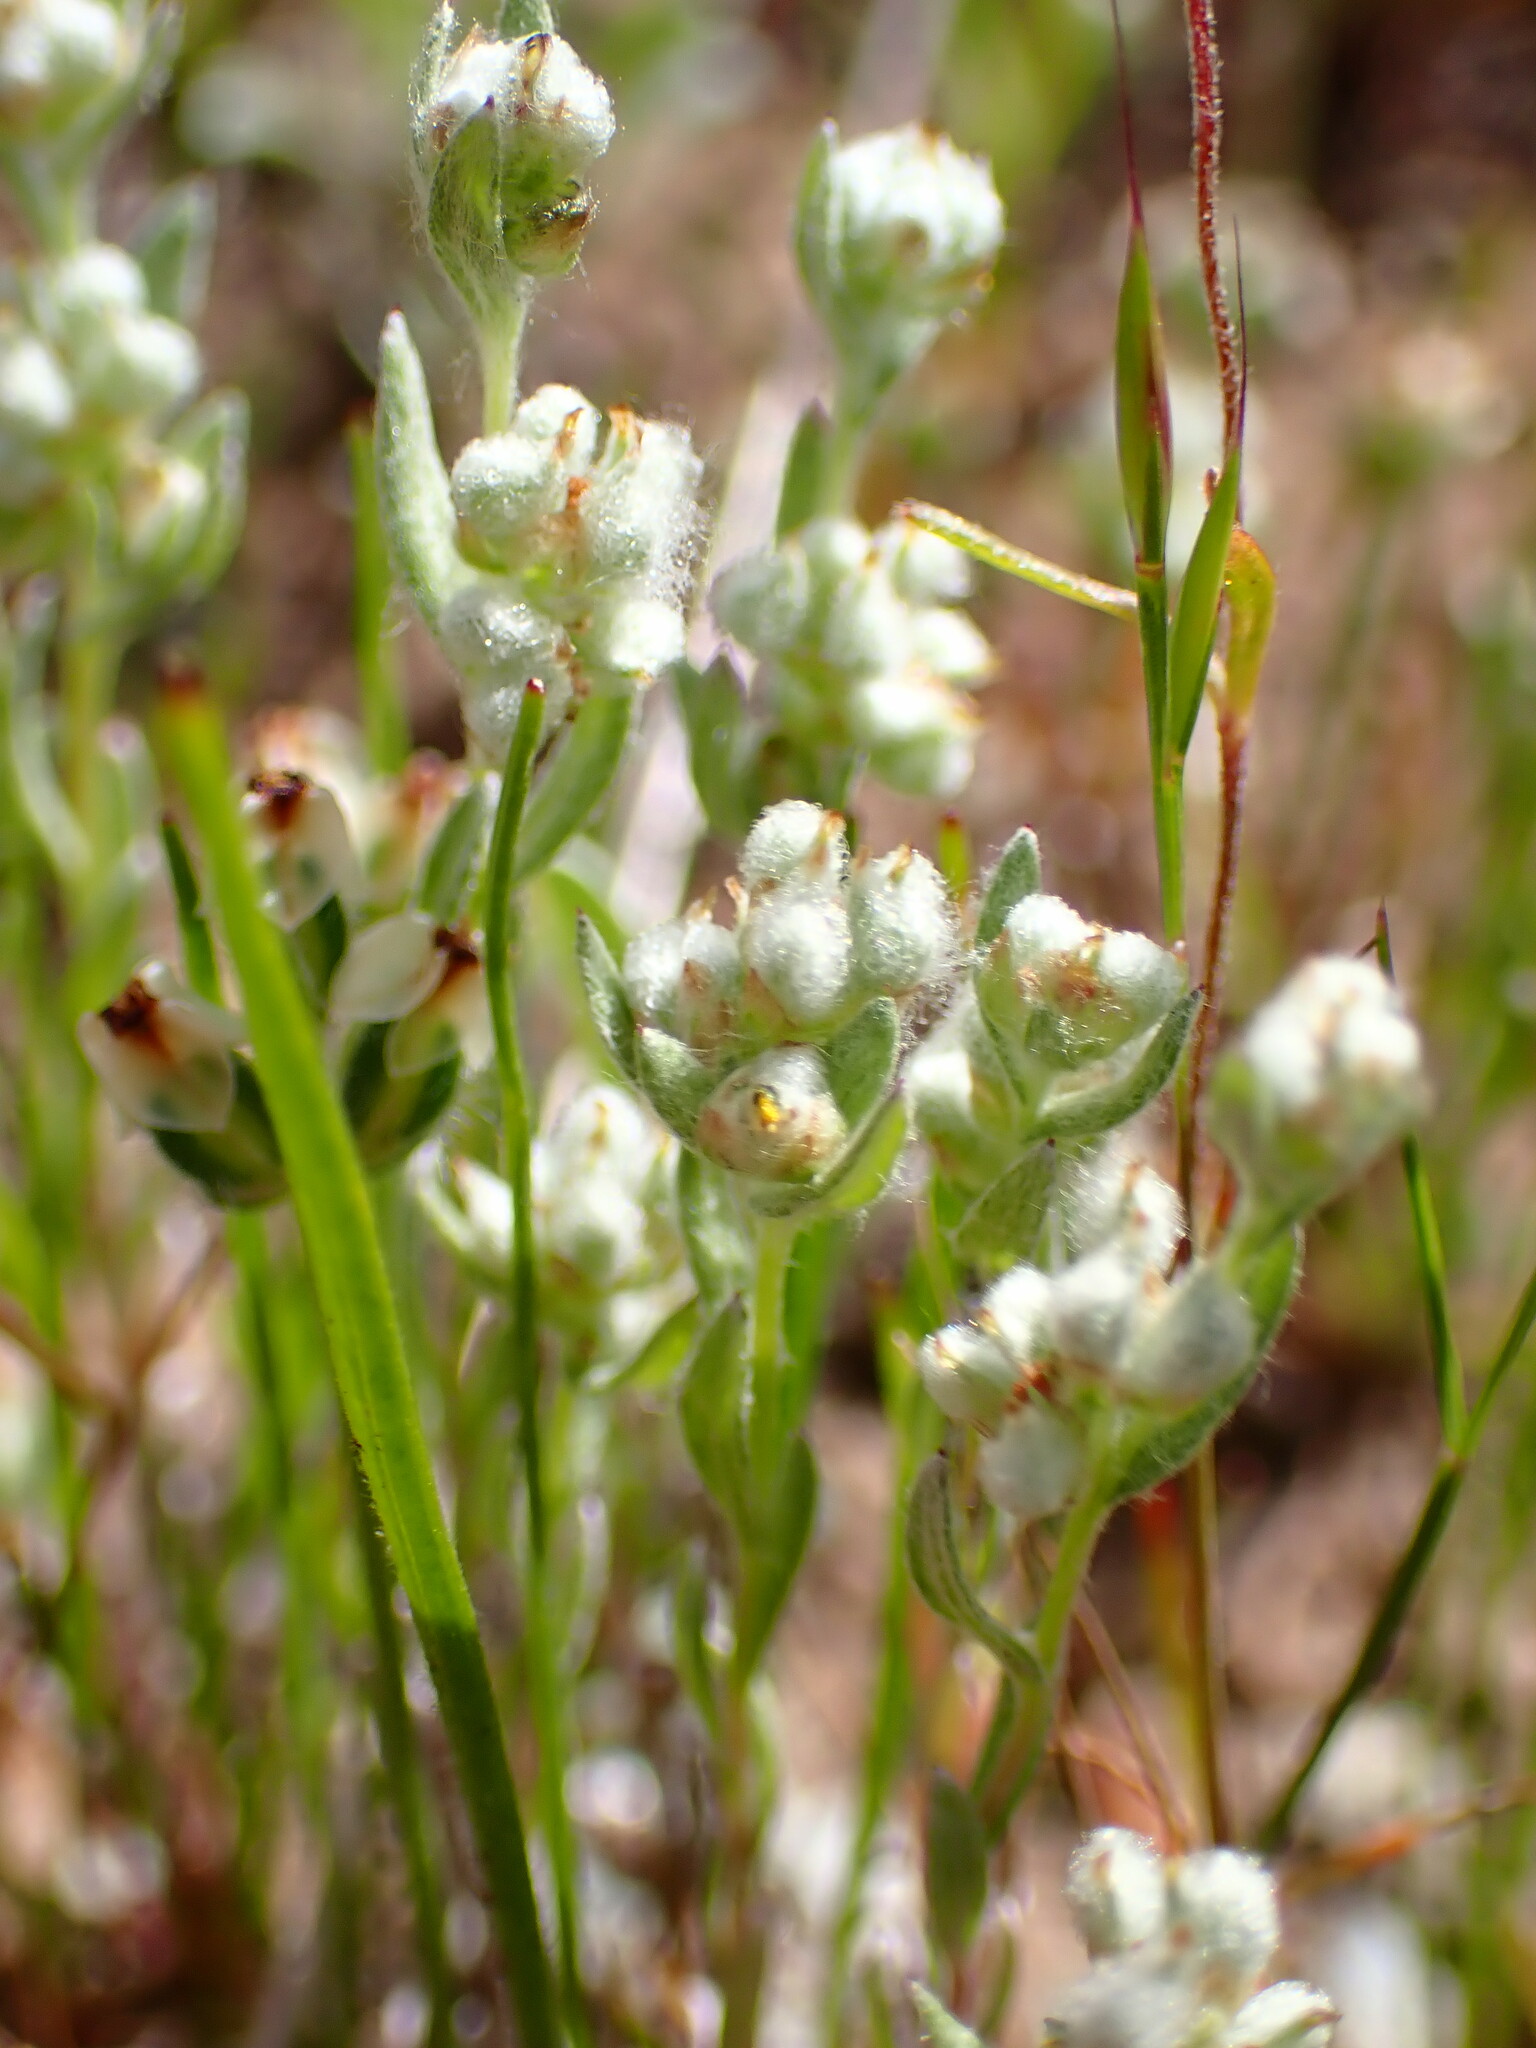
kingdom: Plantae
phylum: Tracheophyta
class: Magnoliopsida
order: Asterales
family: Asteraceae
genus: Bombycilaena
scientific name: Bombycilaena californica
